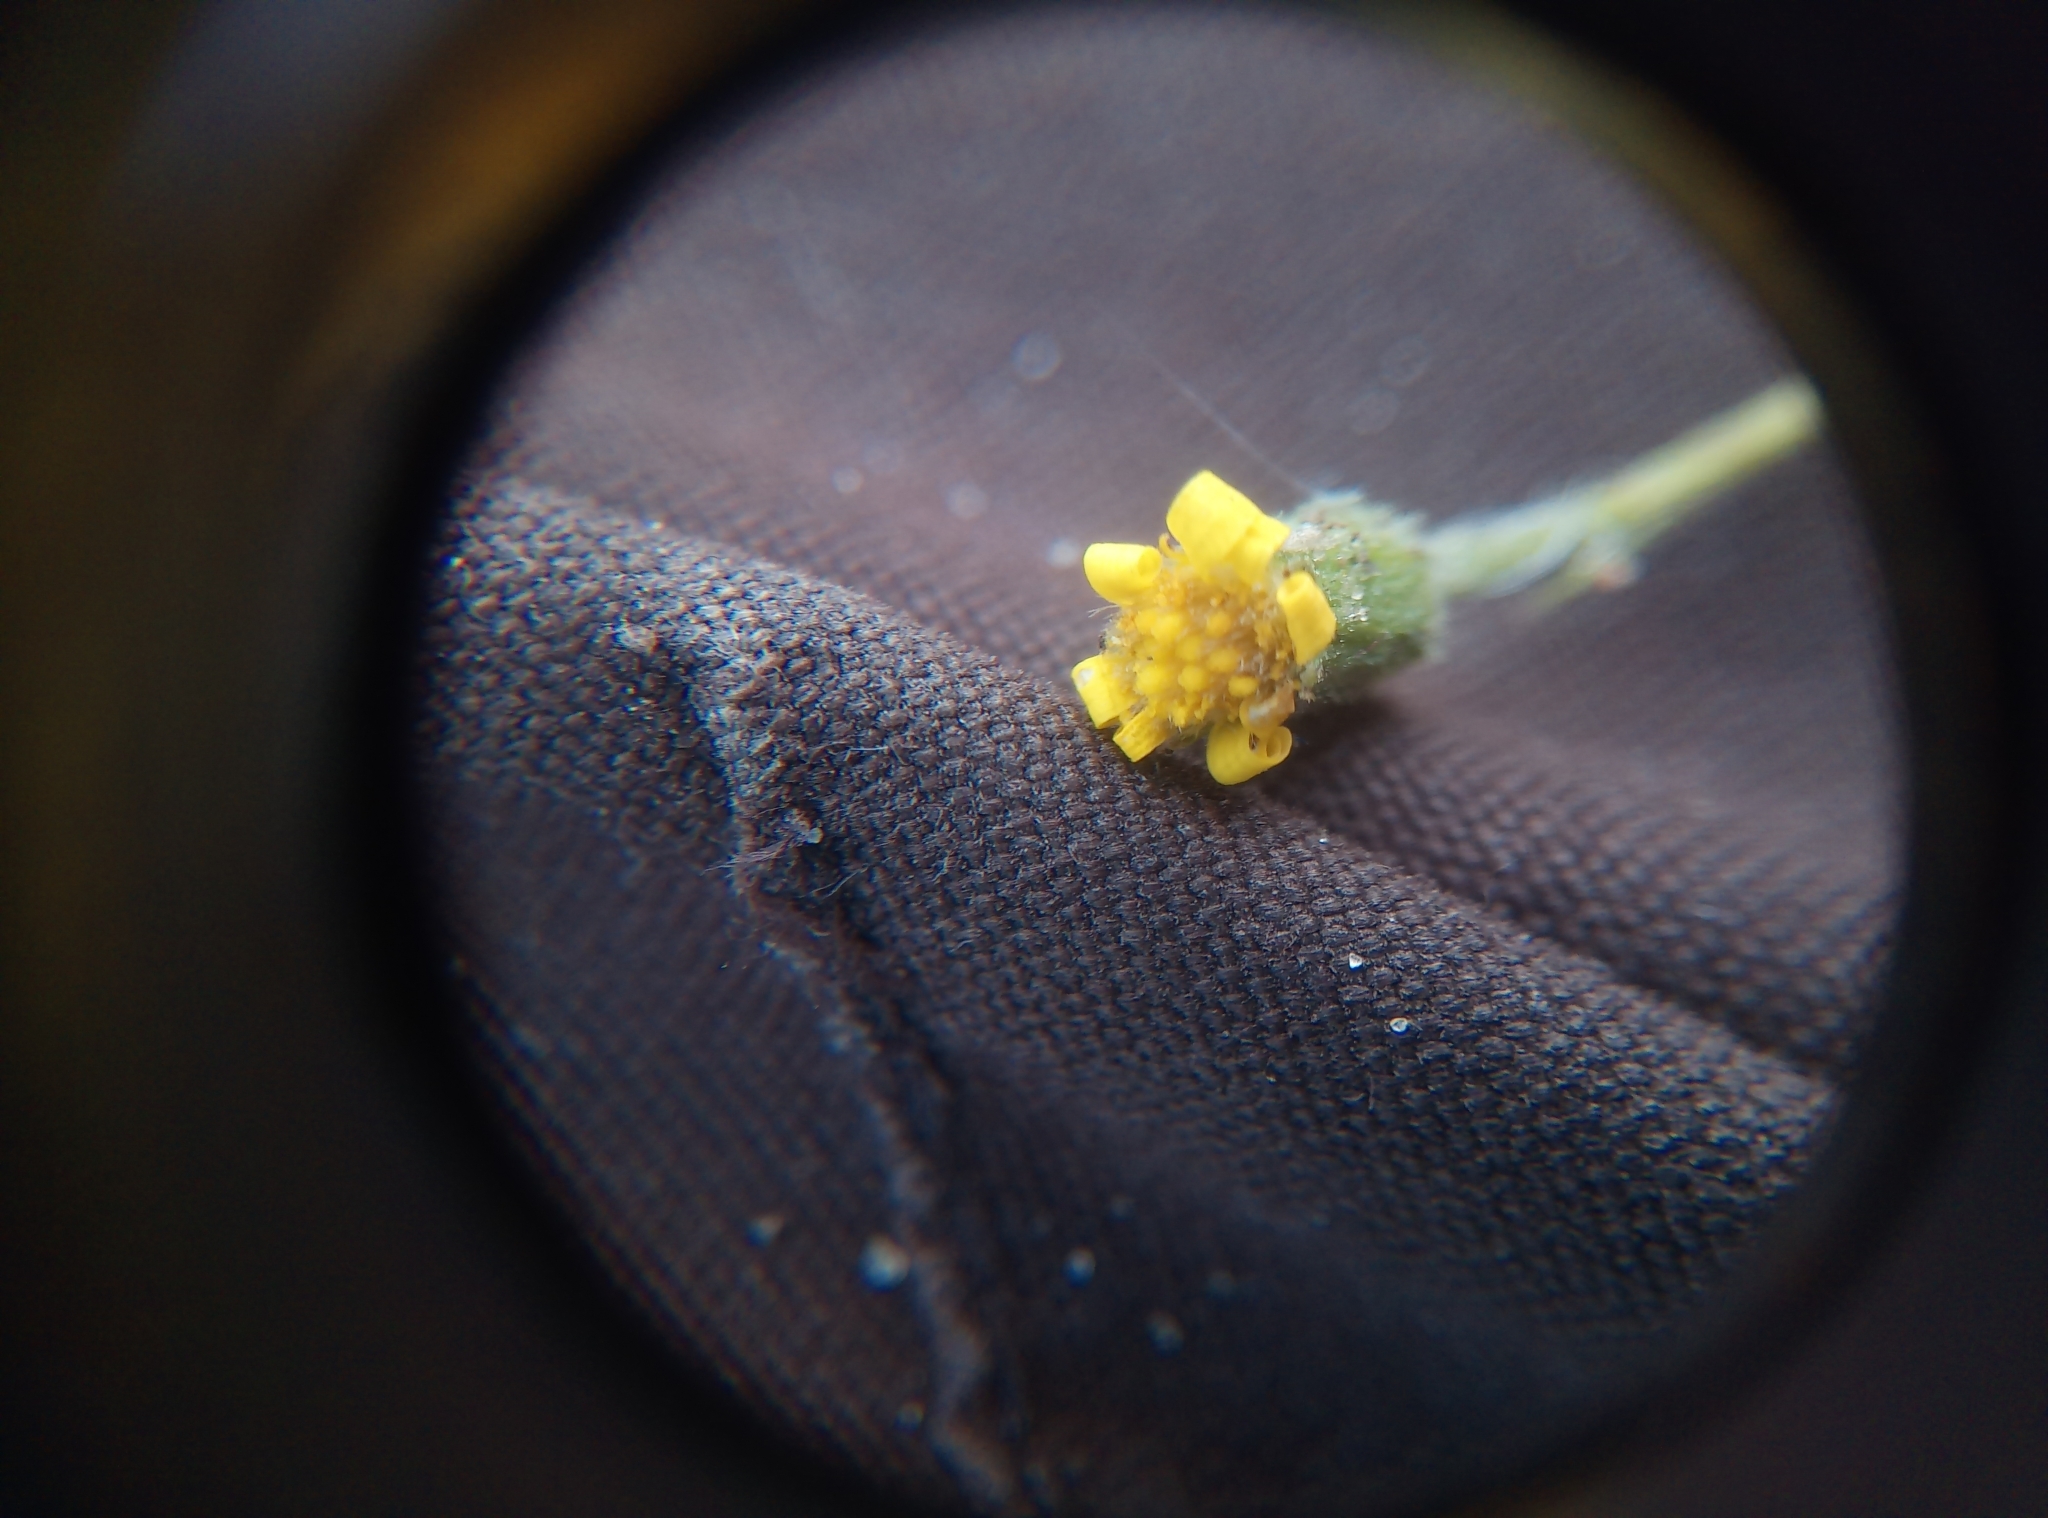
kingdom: Plantae
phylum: Tracheophyta
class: Magnoliopsida
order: Asterales
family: Asteraceae
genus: Senecio
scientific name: Senecio viscosus
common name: Sticky groundsel
